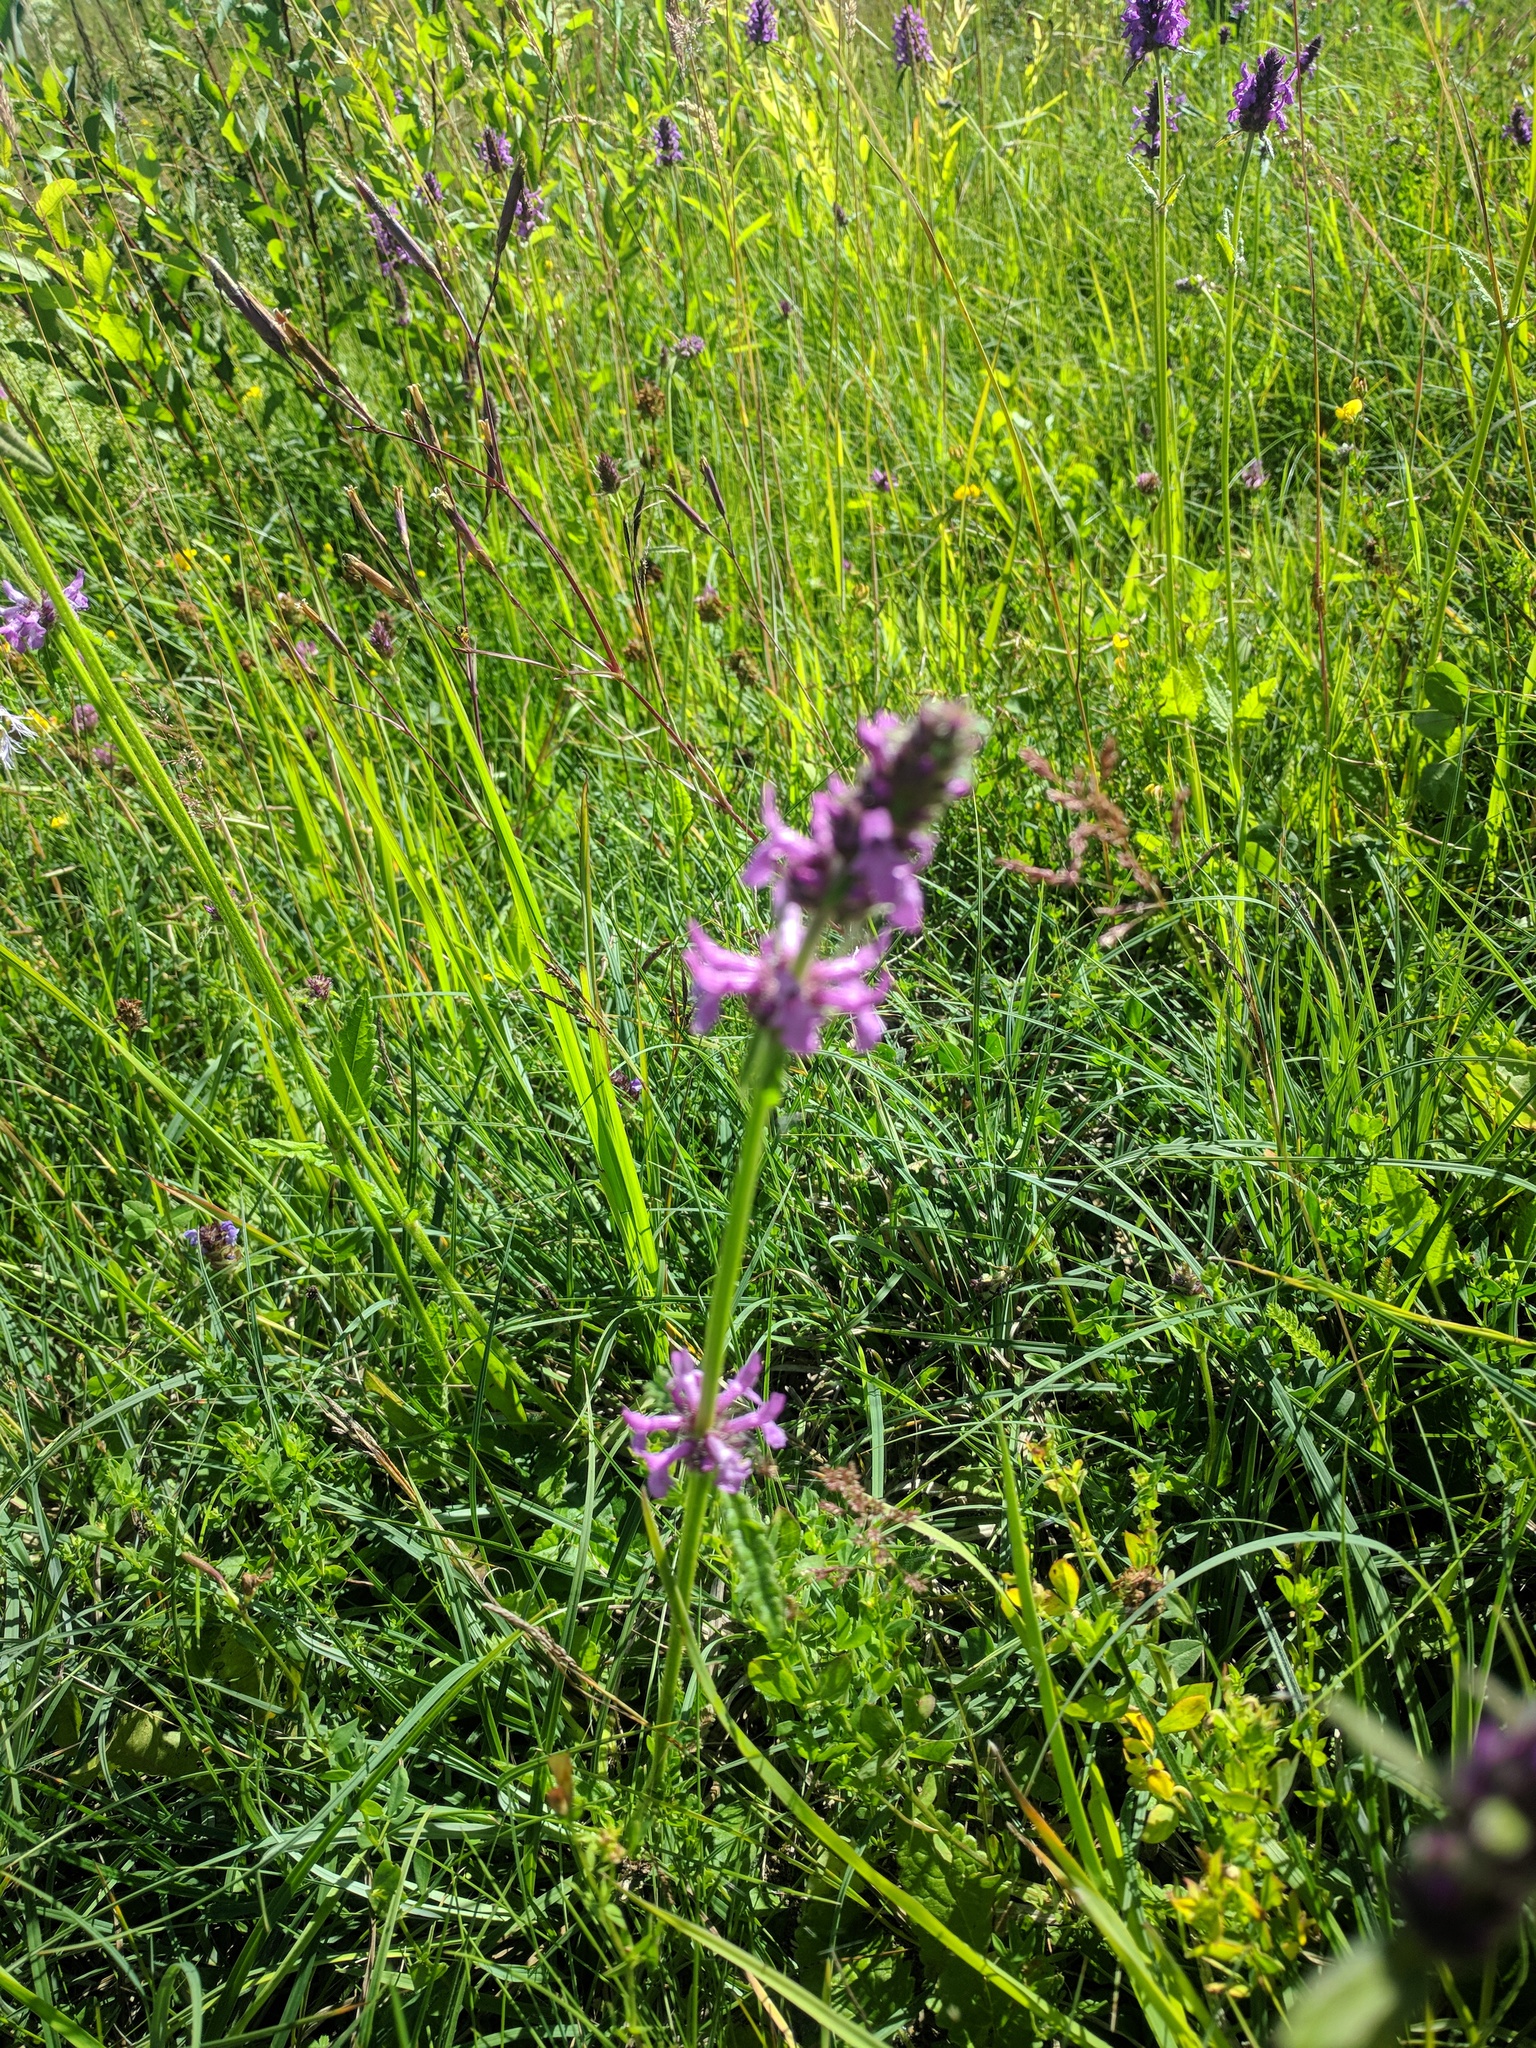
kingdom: Plantae
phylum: Tracheophyta
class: Magnoliopsida
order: Lamiales
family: Lamiaceae
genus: Betonica
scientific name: Betonica officinalis
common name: Bishop's-wort
